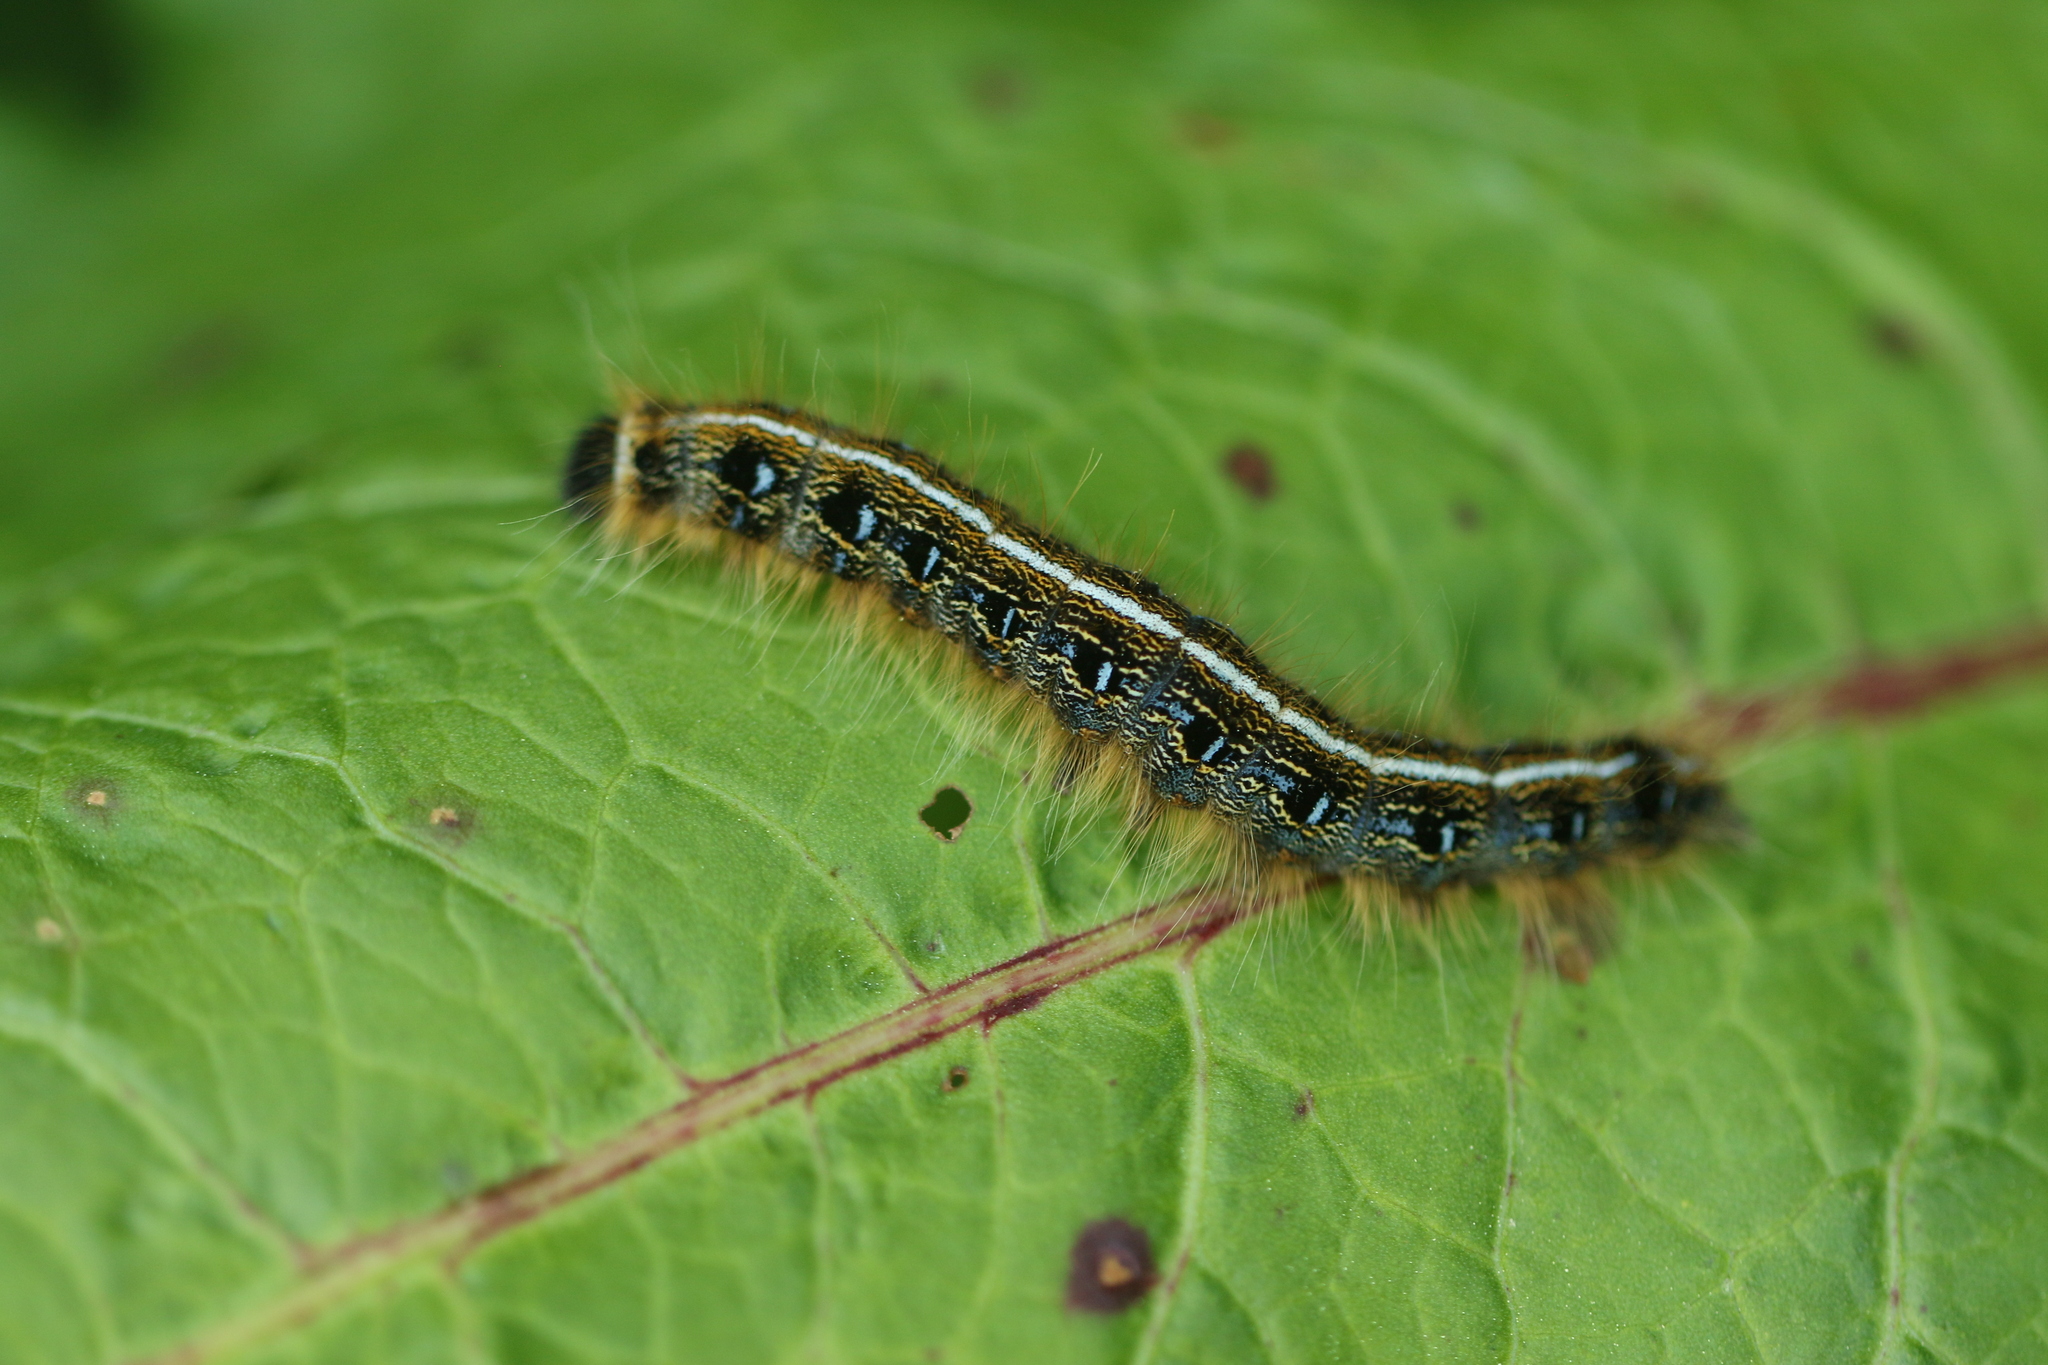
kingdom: Animalia
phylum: Arthropoda
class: Insecta
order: Lepidoptera
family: Lasiocampidae
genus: Malacosoma
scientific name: Malacosoma americana
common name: Eastern tent caterpillar moth
